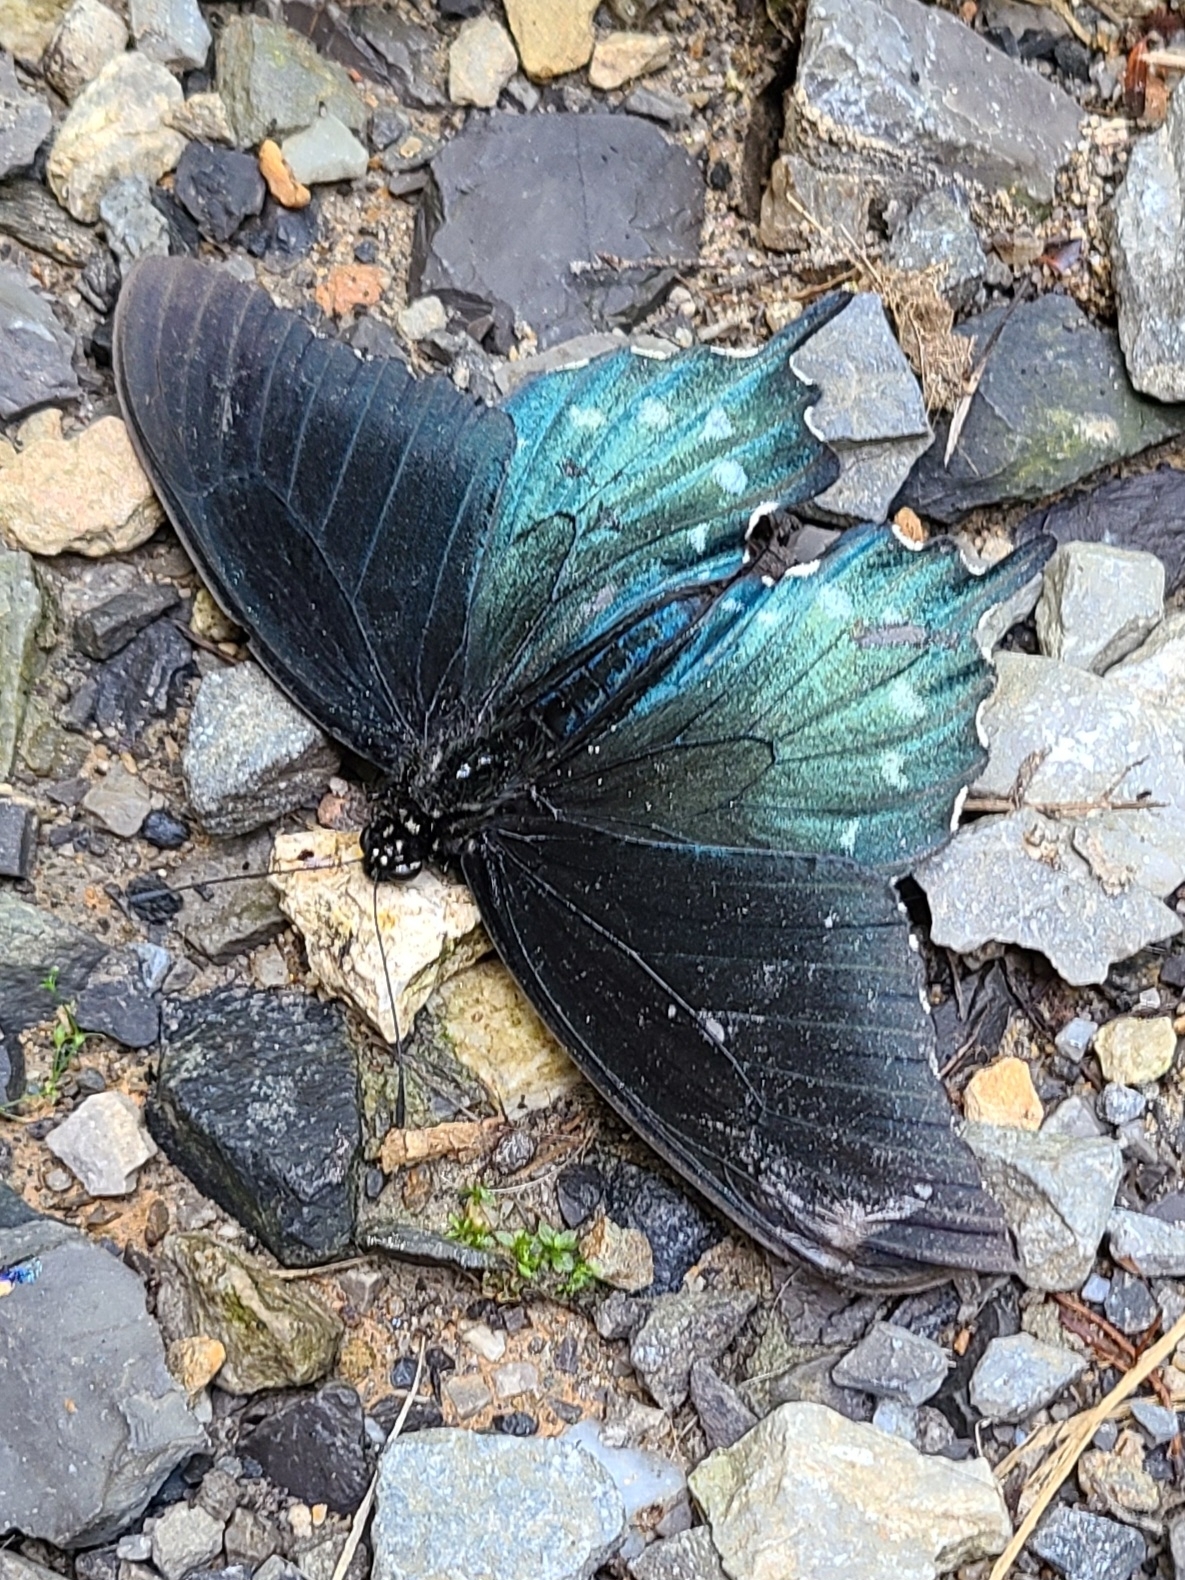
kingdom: Animalia
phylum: Arthropoda
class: Insecta
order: Lepidoptera
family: Papilionidae
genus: Battus
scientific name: Battus philenor
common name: Pipevine swallowtail
